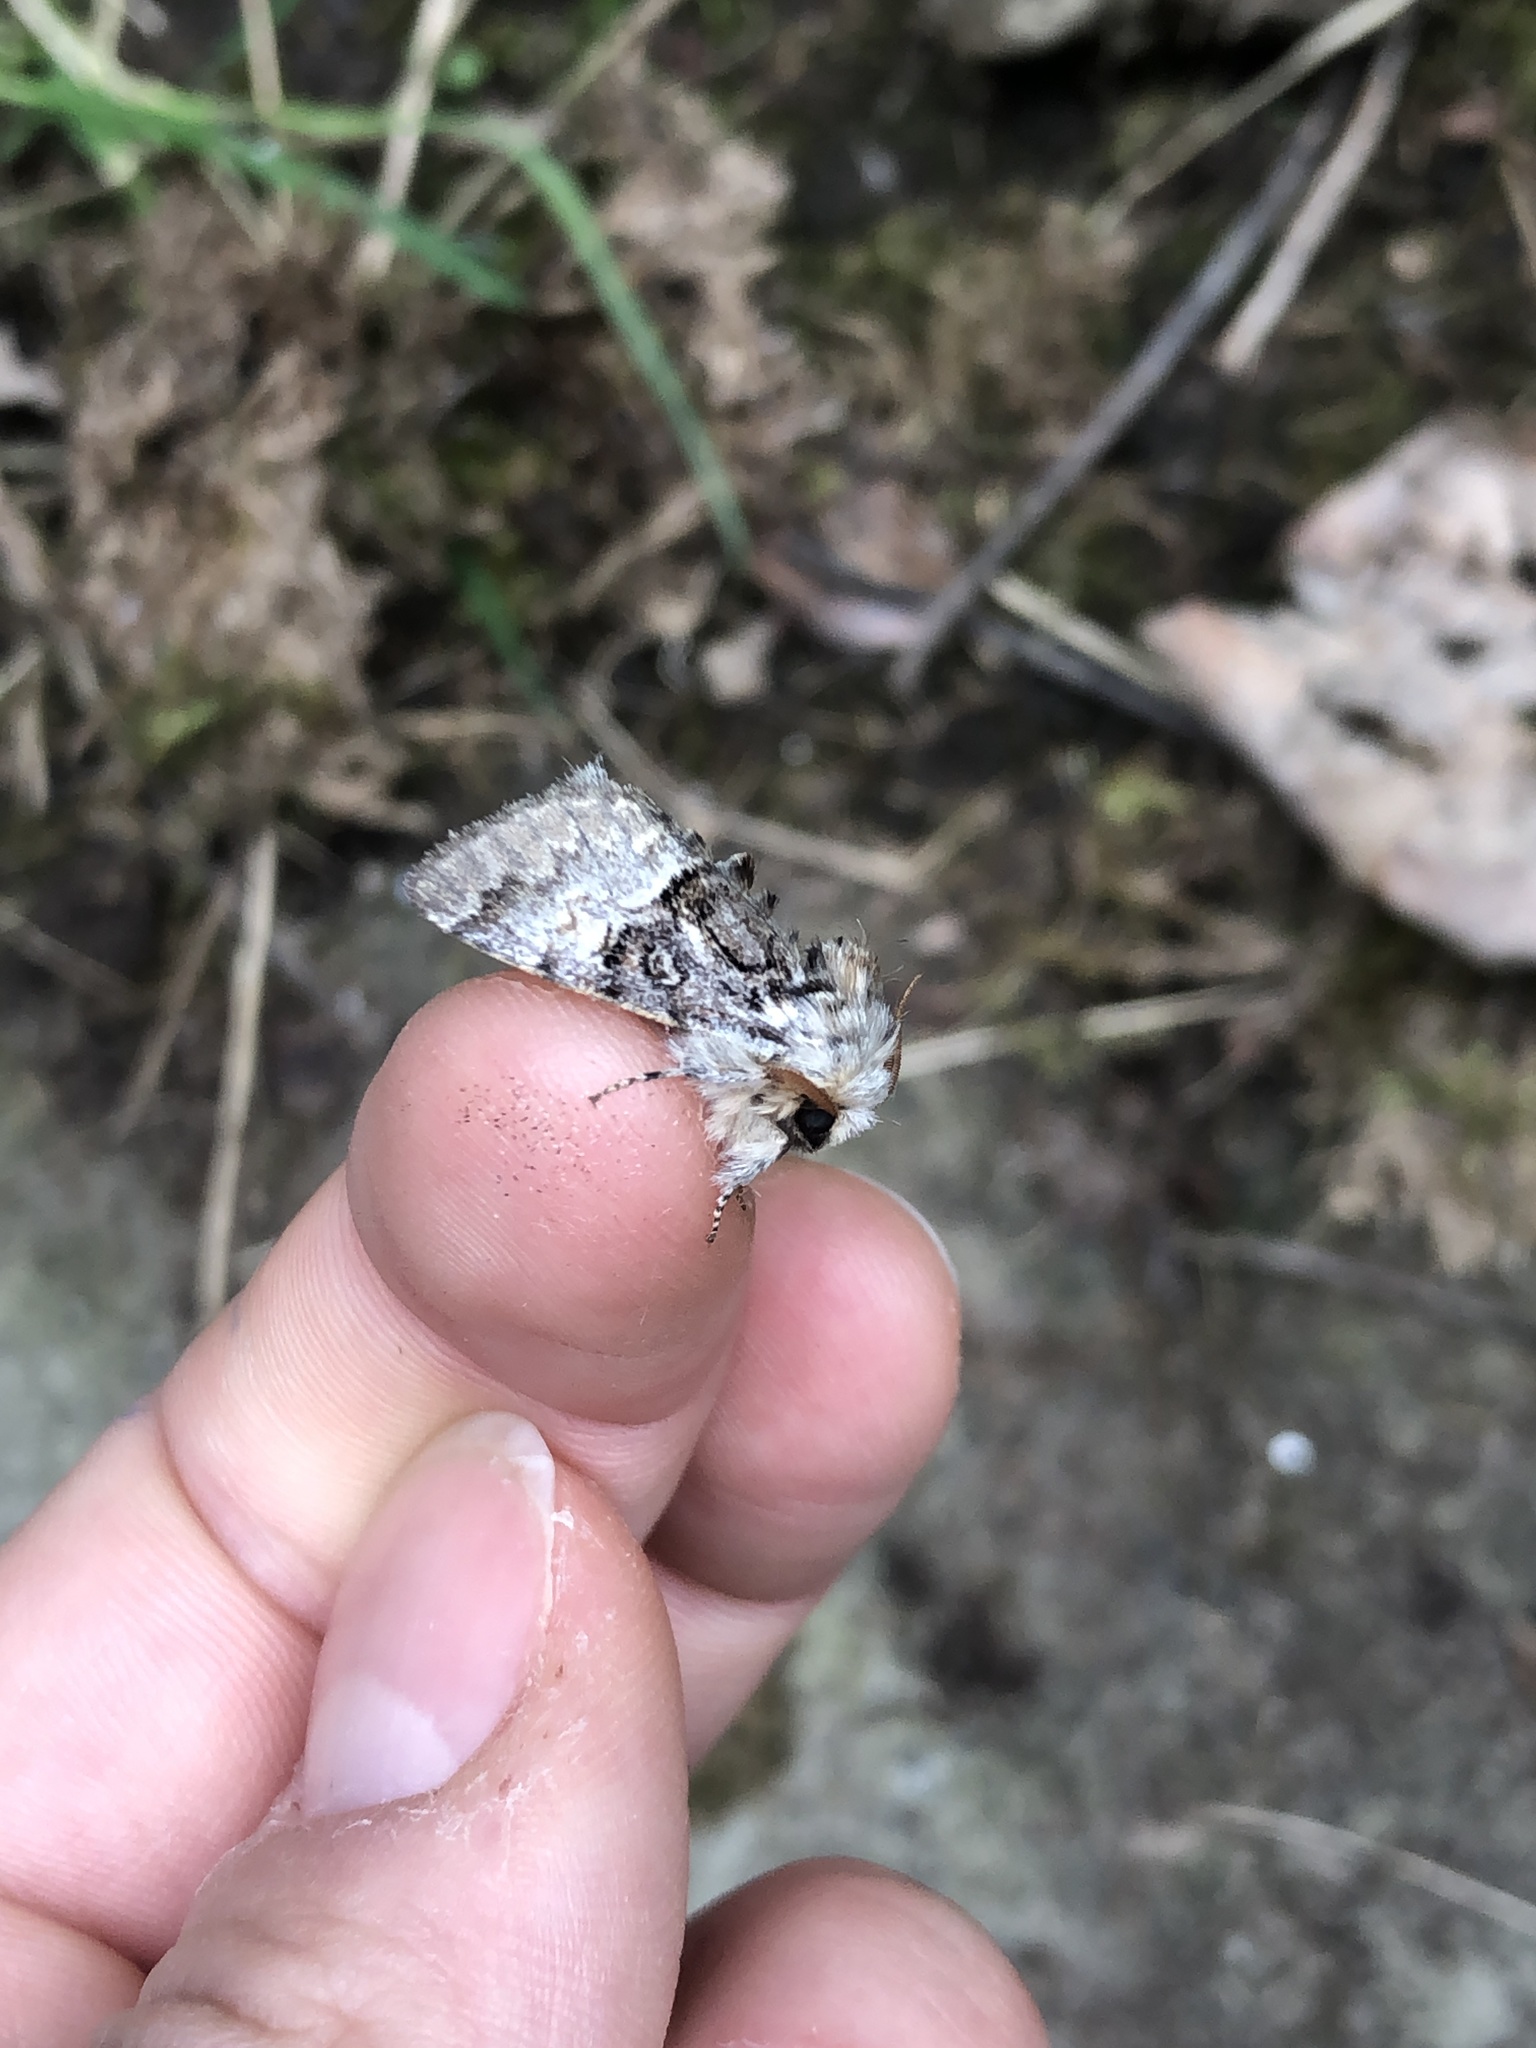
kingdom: Animalia
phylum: Arthropoda
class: Insecta
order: Lepidoptera
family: Noctuidae
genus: Colocasia
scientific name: Colocasia coryli
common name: Nut-tree tussock
